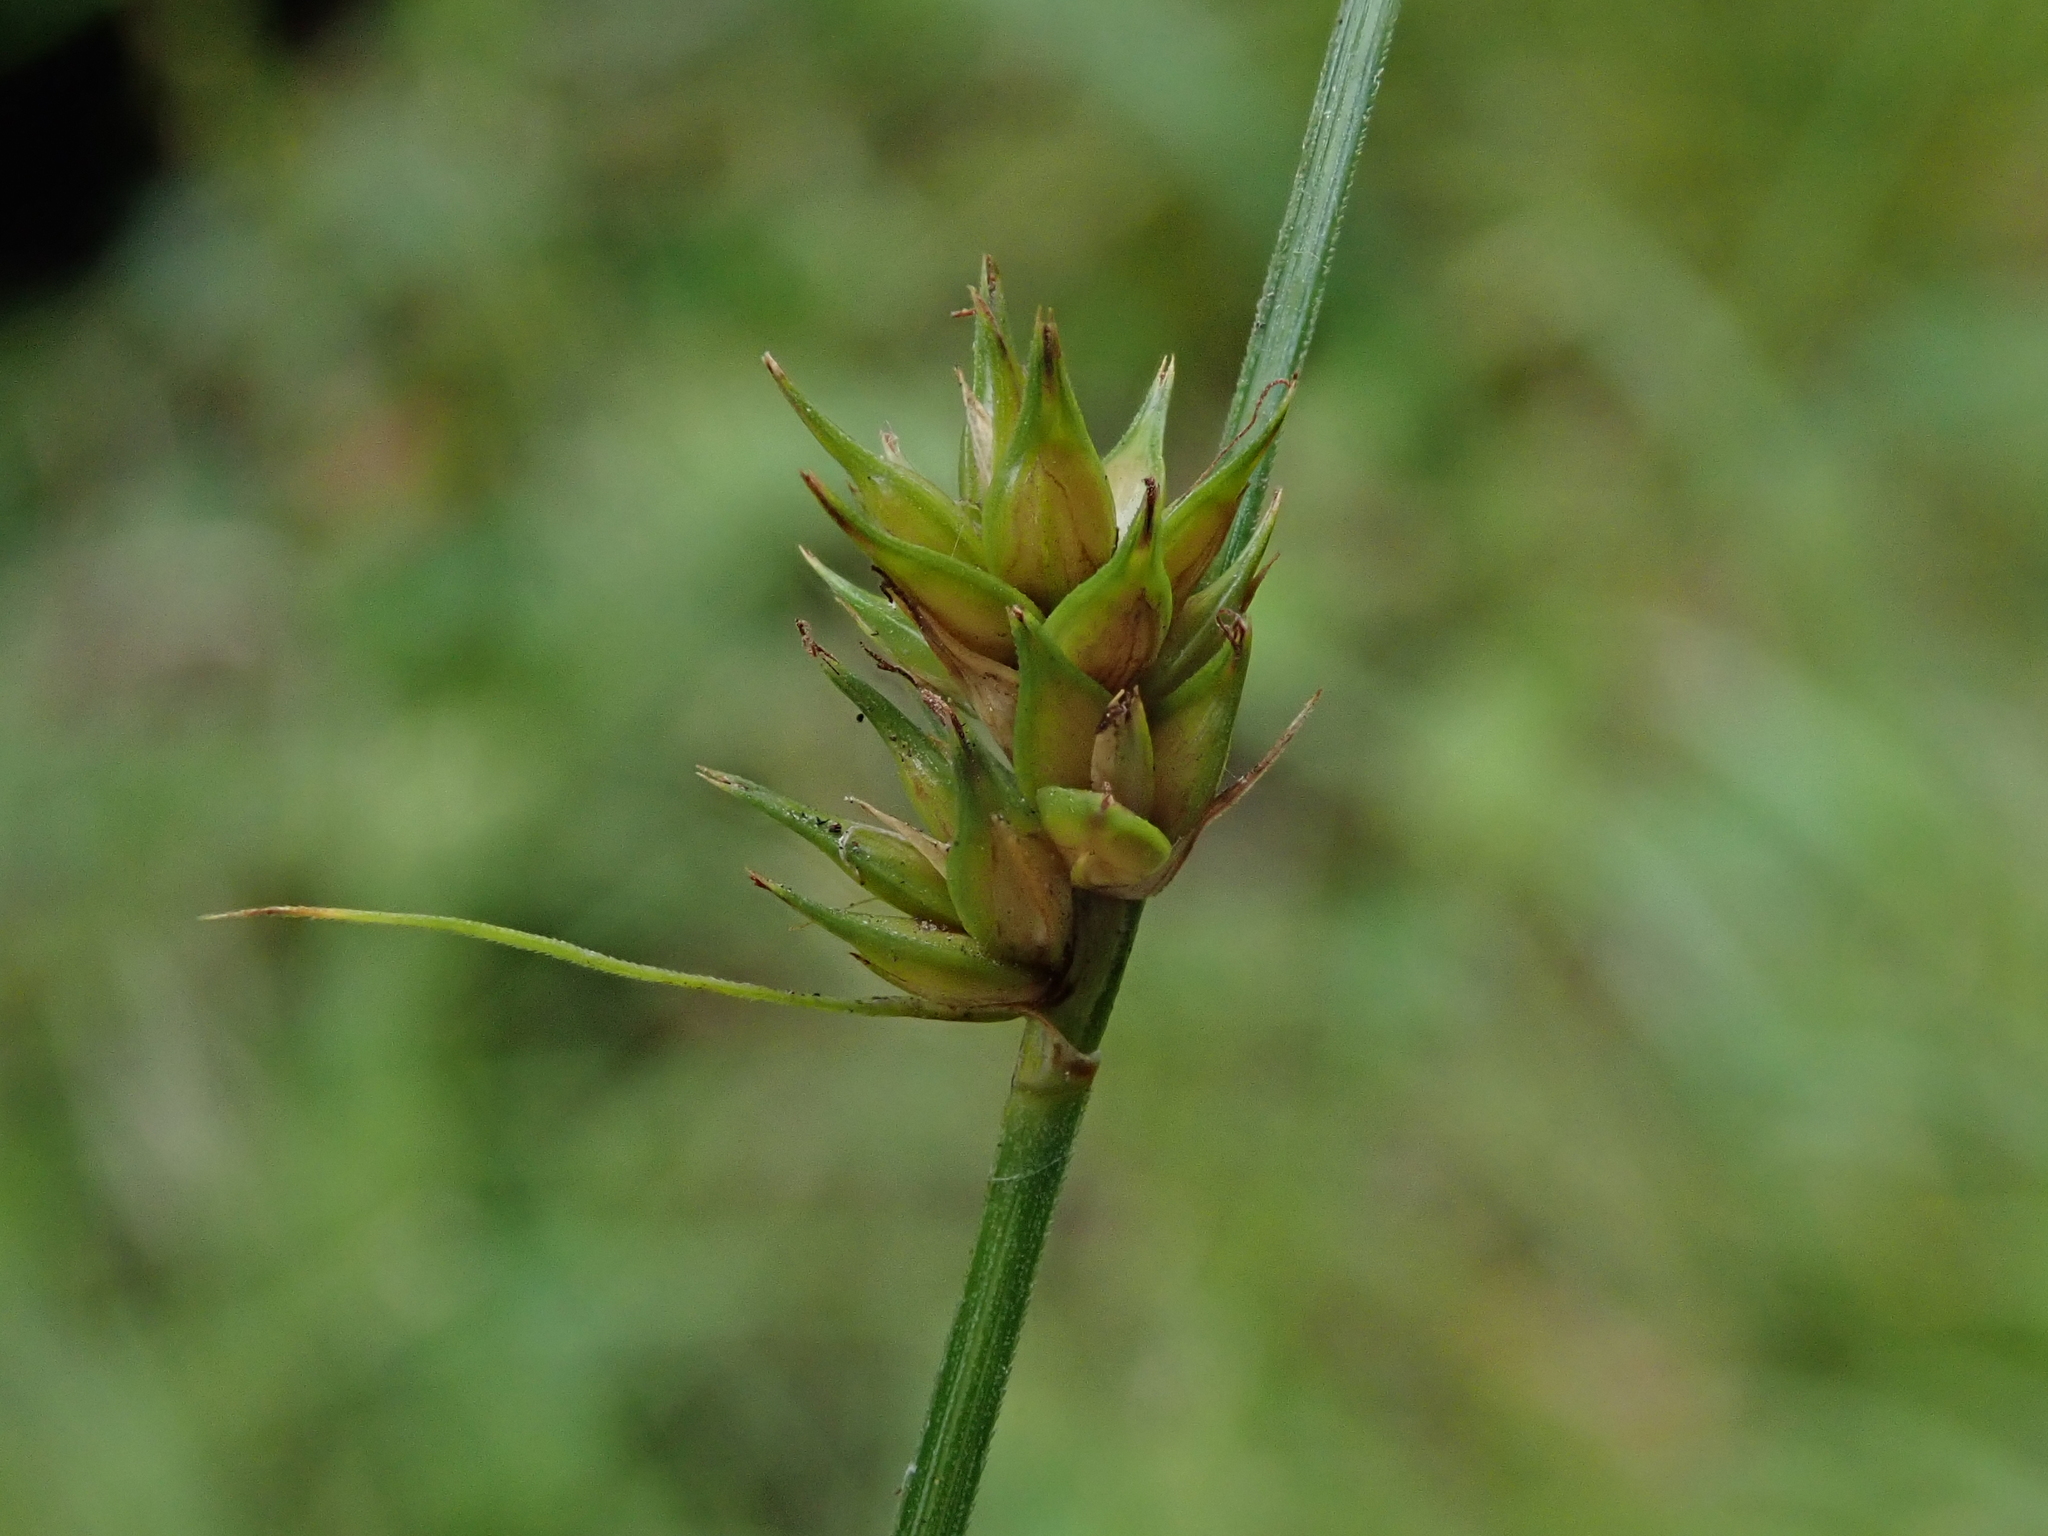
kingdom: Plantae
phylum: Tracheophyta
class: Liliopsida
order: Poales
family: Cyperaceae
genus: Carex
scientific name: Carex divulsa
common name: Grassland sedge
